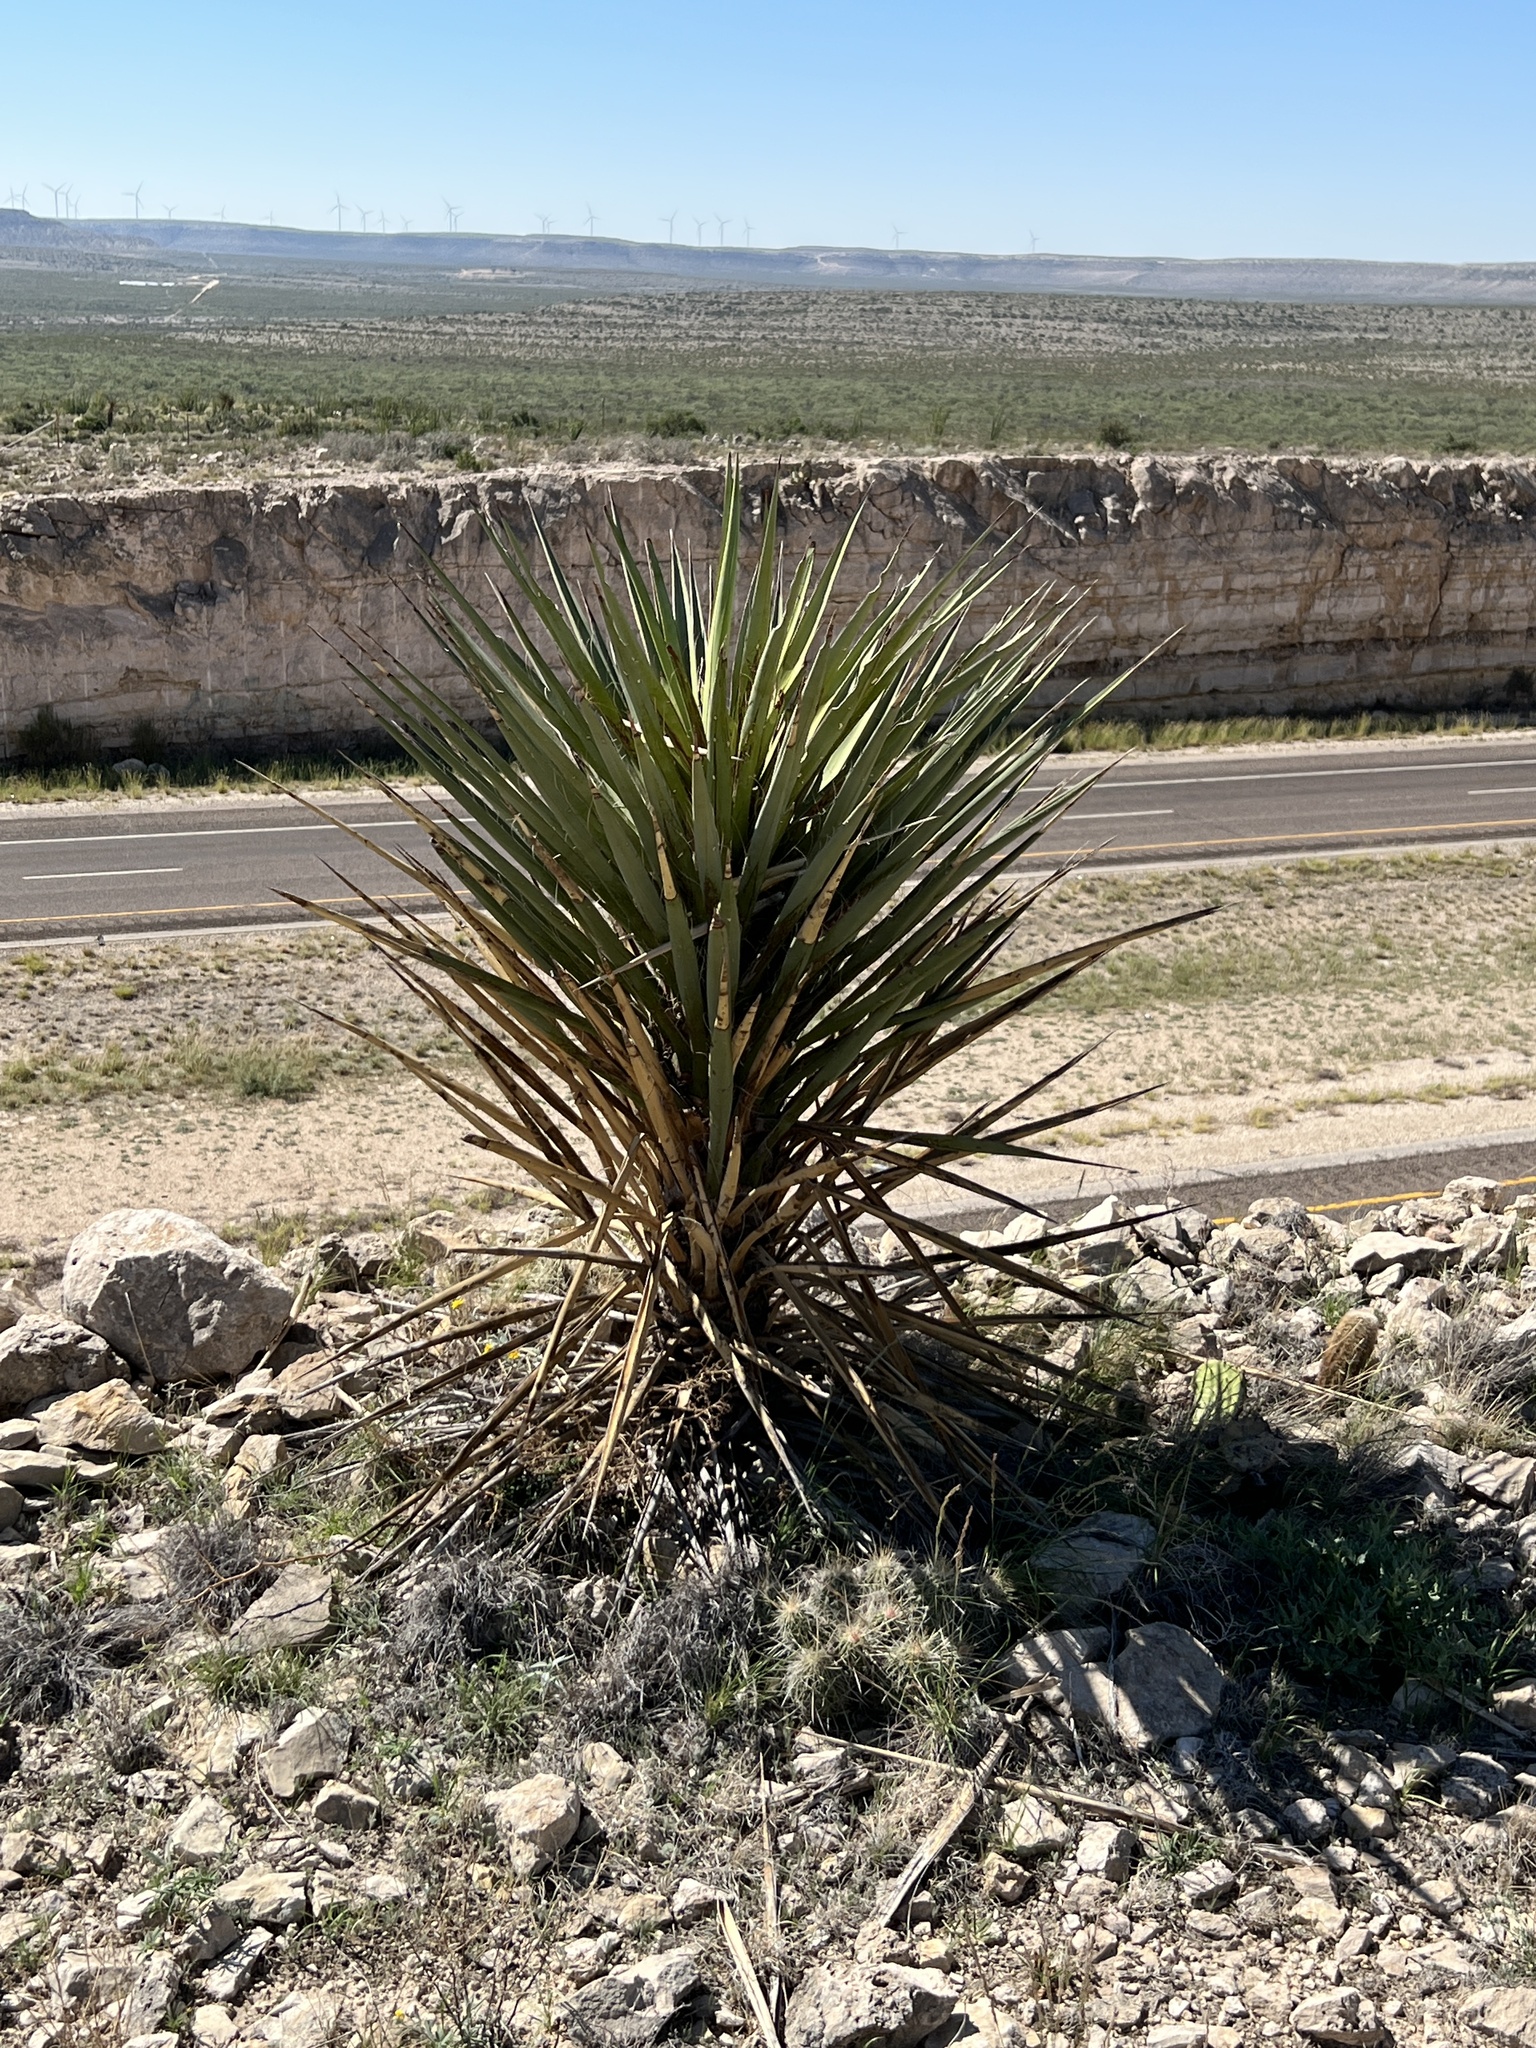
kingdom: Plantae
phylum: Tracheophyta
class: Liliopsida
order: Asparagales
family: Asparagaceae
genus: Yucca
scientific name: Yucca treculiana
